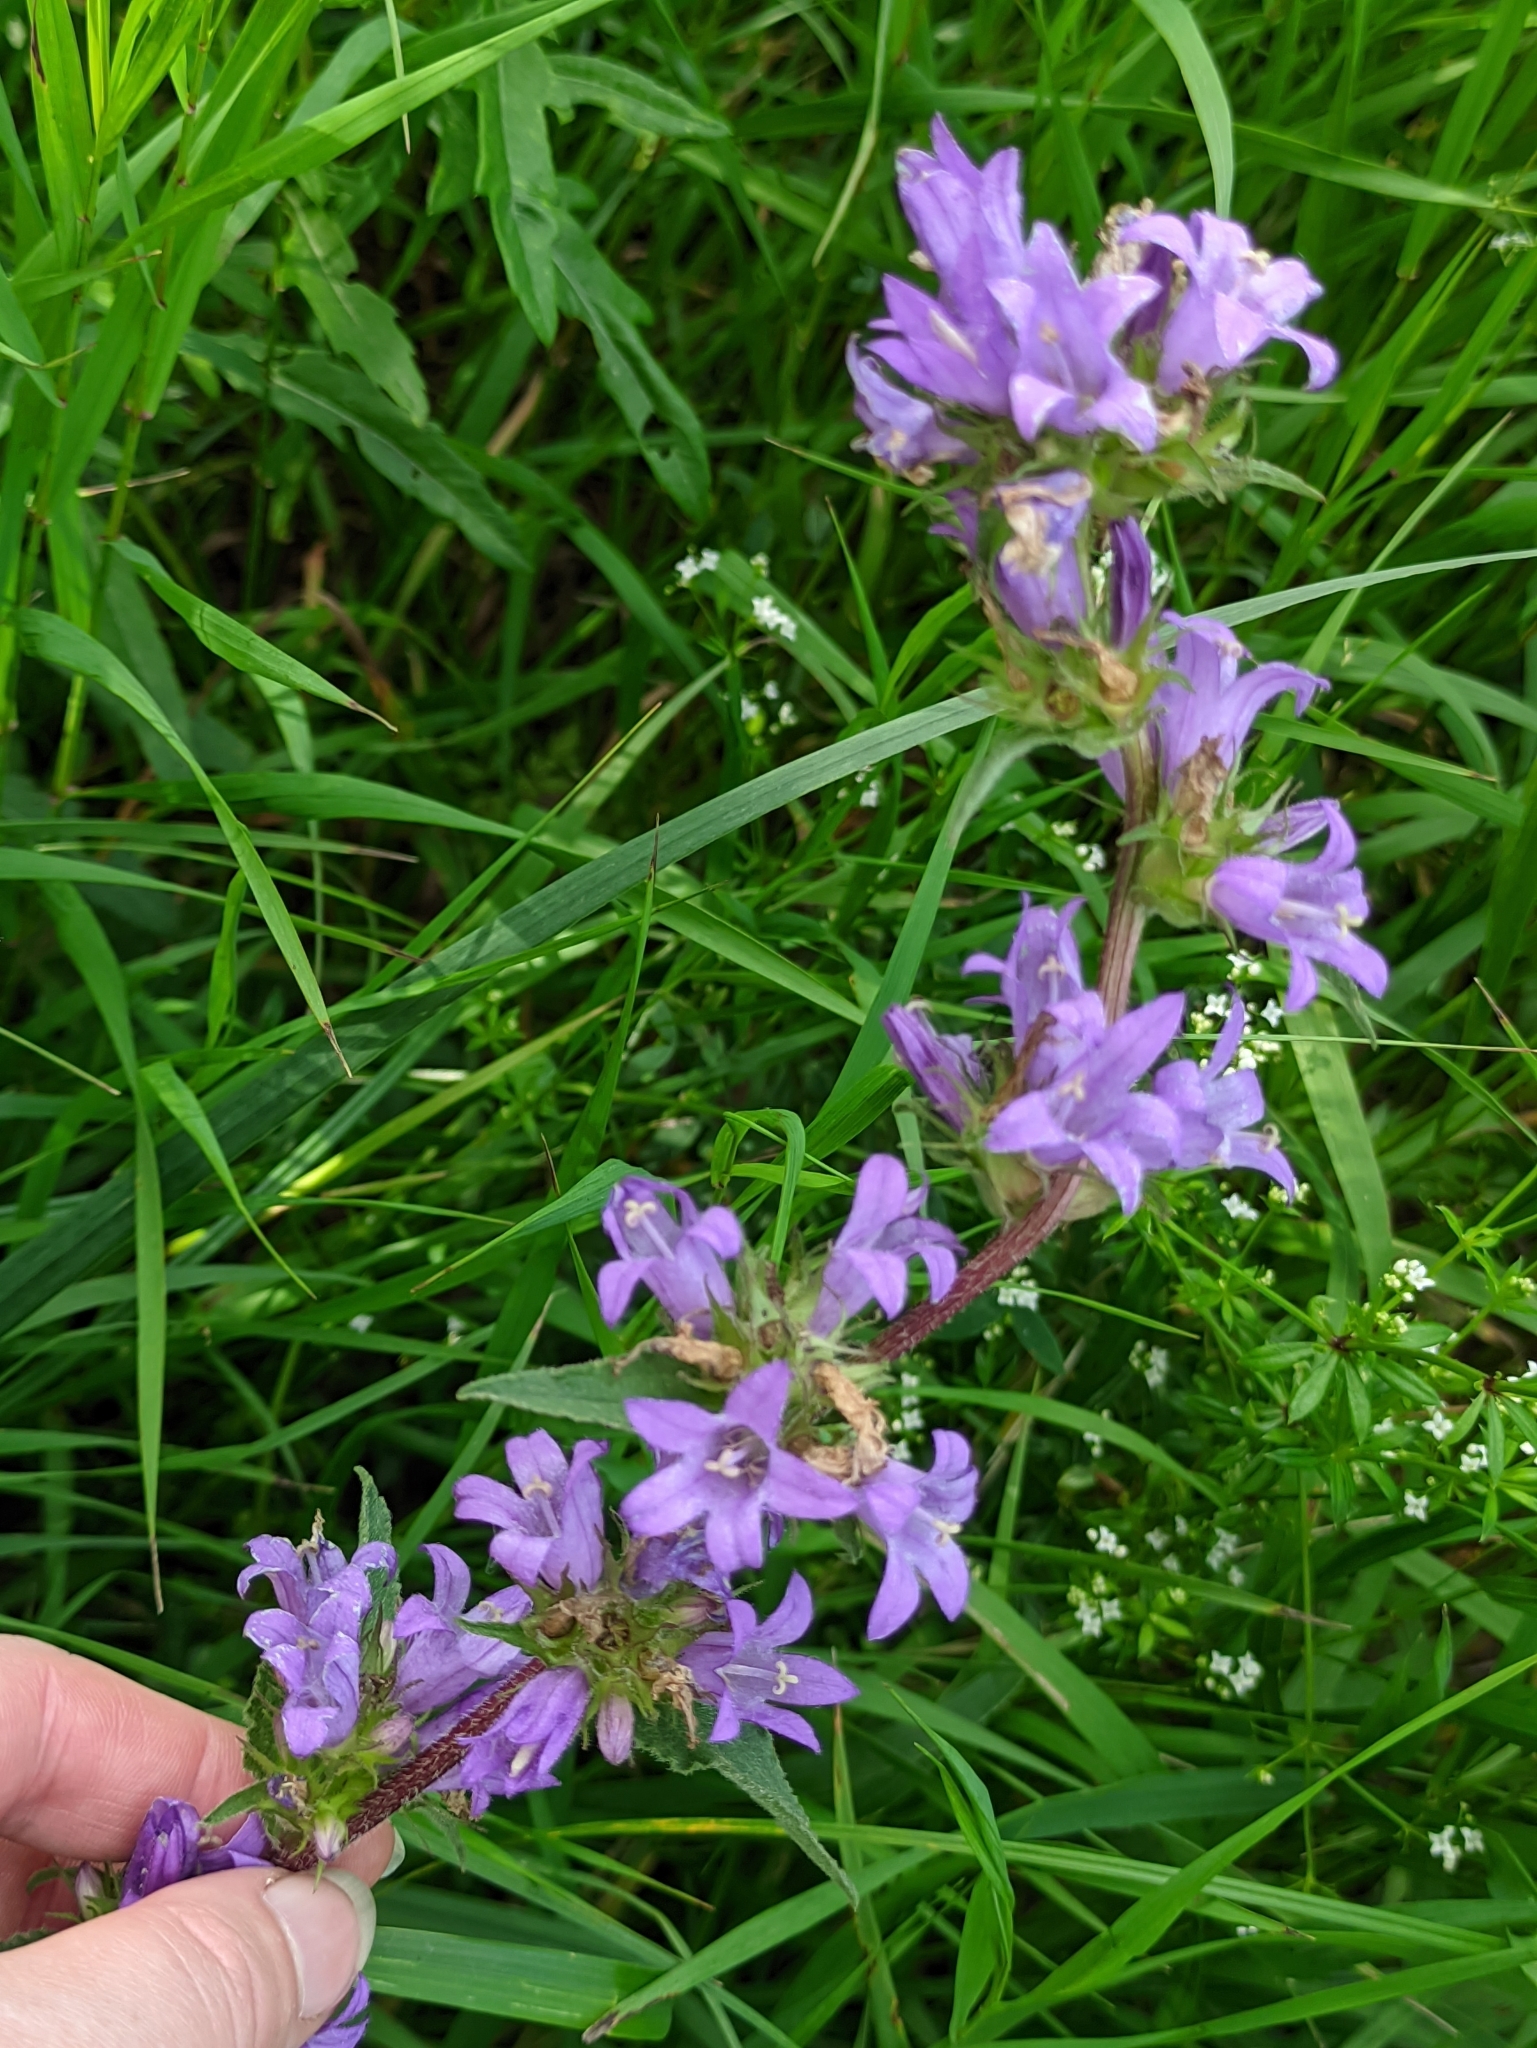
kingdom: Plantae
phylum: Tracheophyta
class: Magnoliopsida
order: Asterales
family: Campanulaceae
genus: Campanula
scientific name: Campanula glomerata
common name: Clustered bellflower
